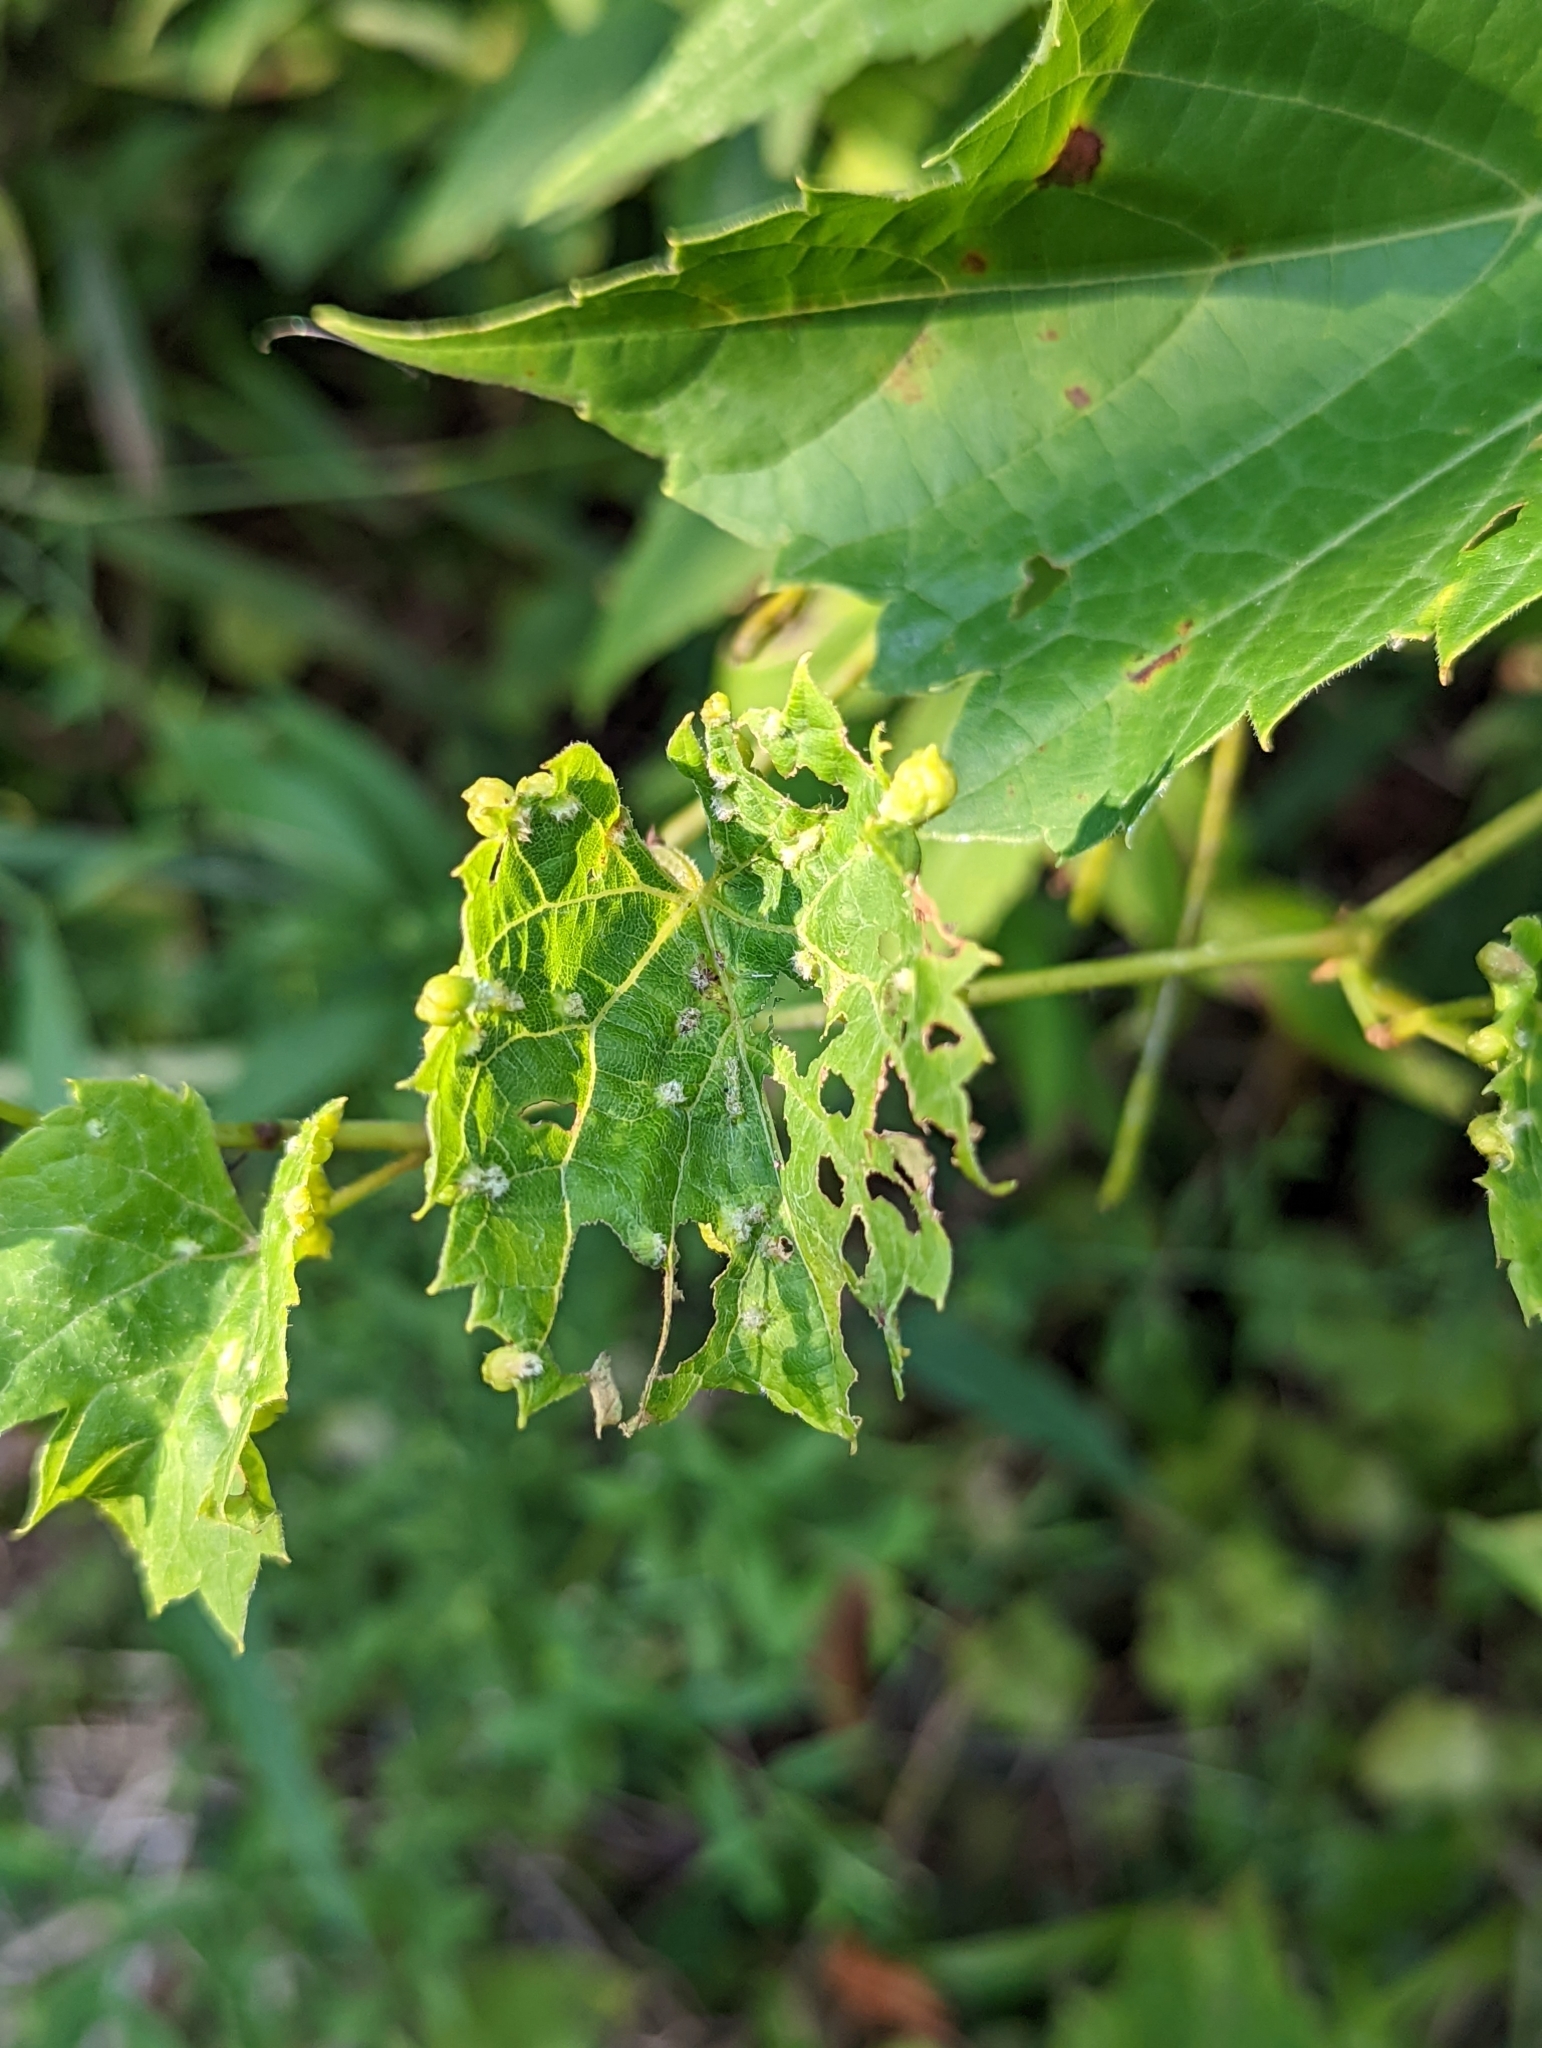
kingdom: Animalia
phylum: Arthropoda
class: Insecta
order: Hemiptera
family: Phylloxeridae
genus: Daktulosphaira
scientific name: Daktulosphaira vitifoliae
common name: Grape phylloxera
